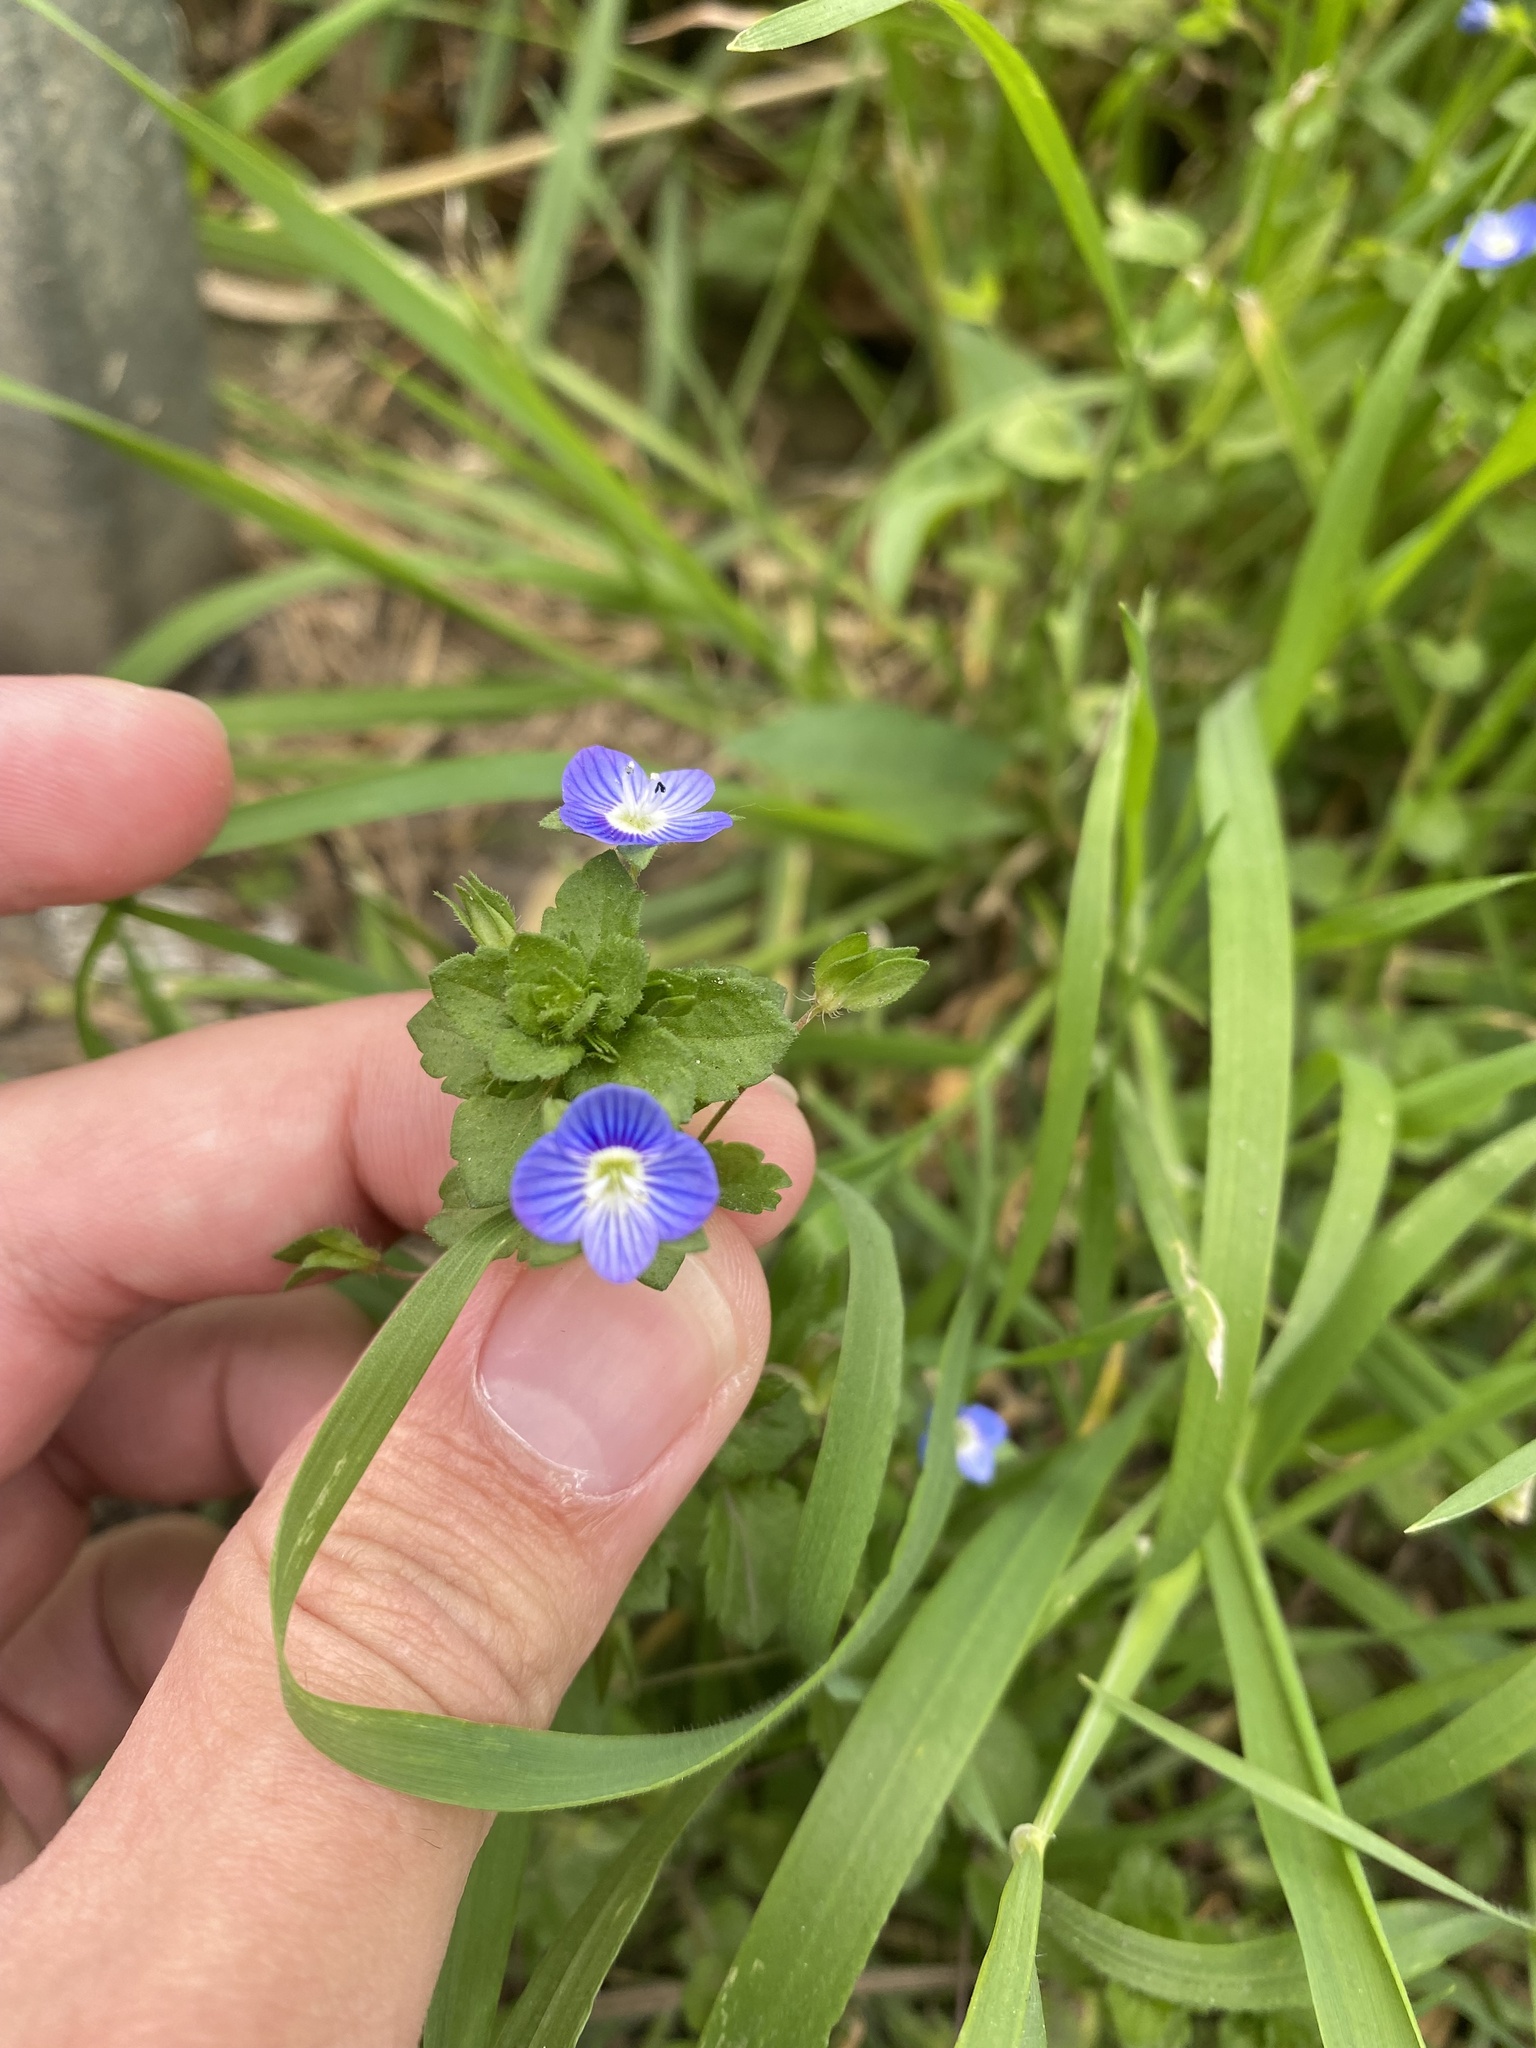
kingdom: Plantae
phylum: Tracheophyta
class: Magnoliopsida
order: Lamiales
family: Plantaginaceae
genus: Veronica
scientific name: Veronica persica
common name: Common field-speedwell
